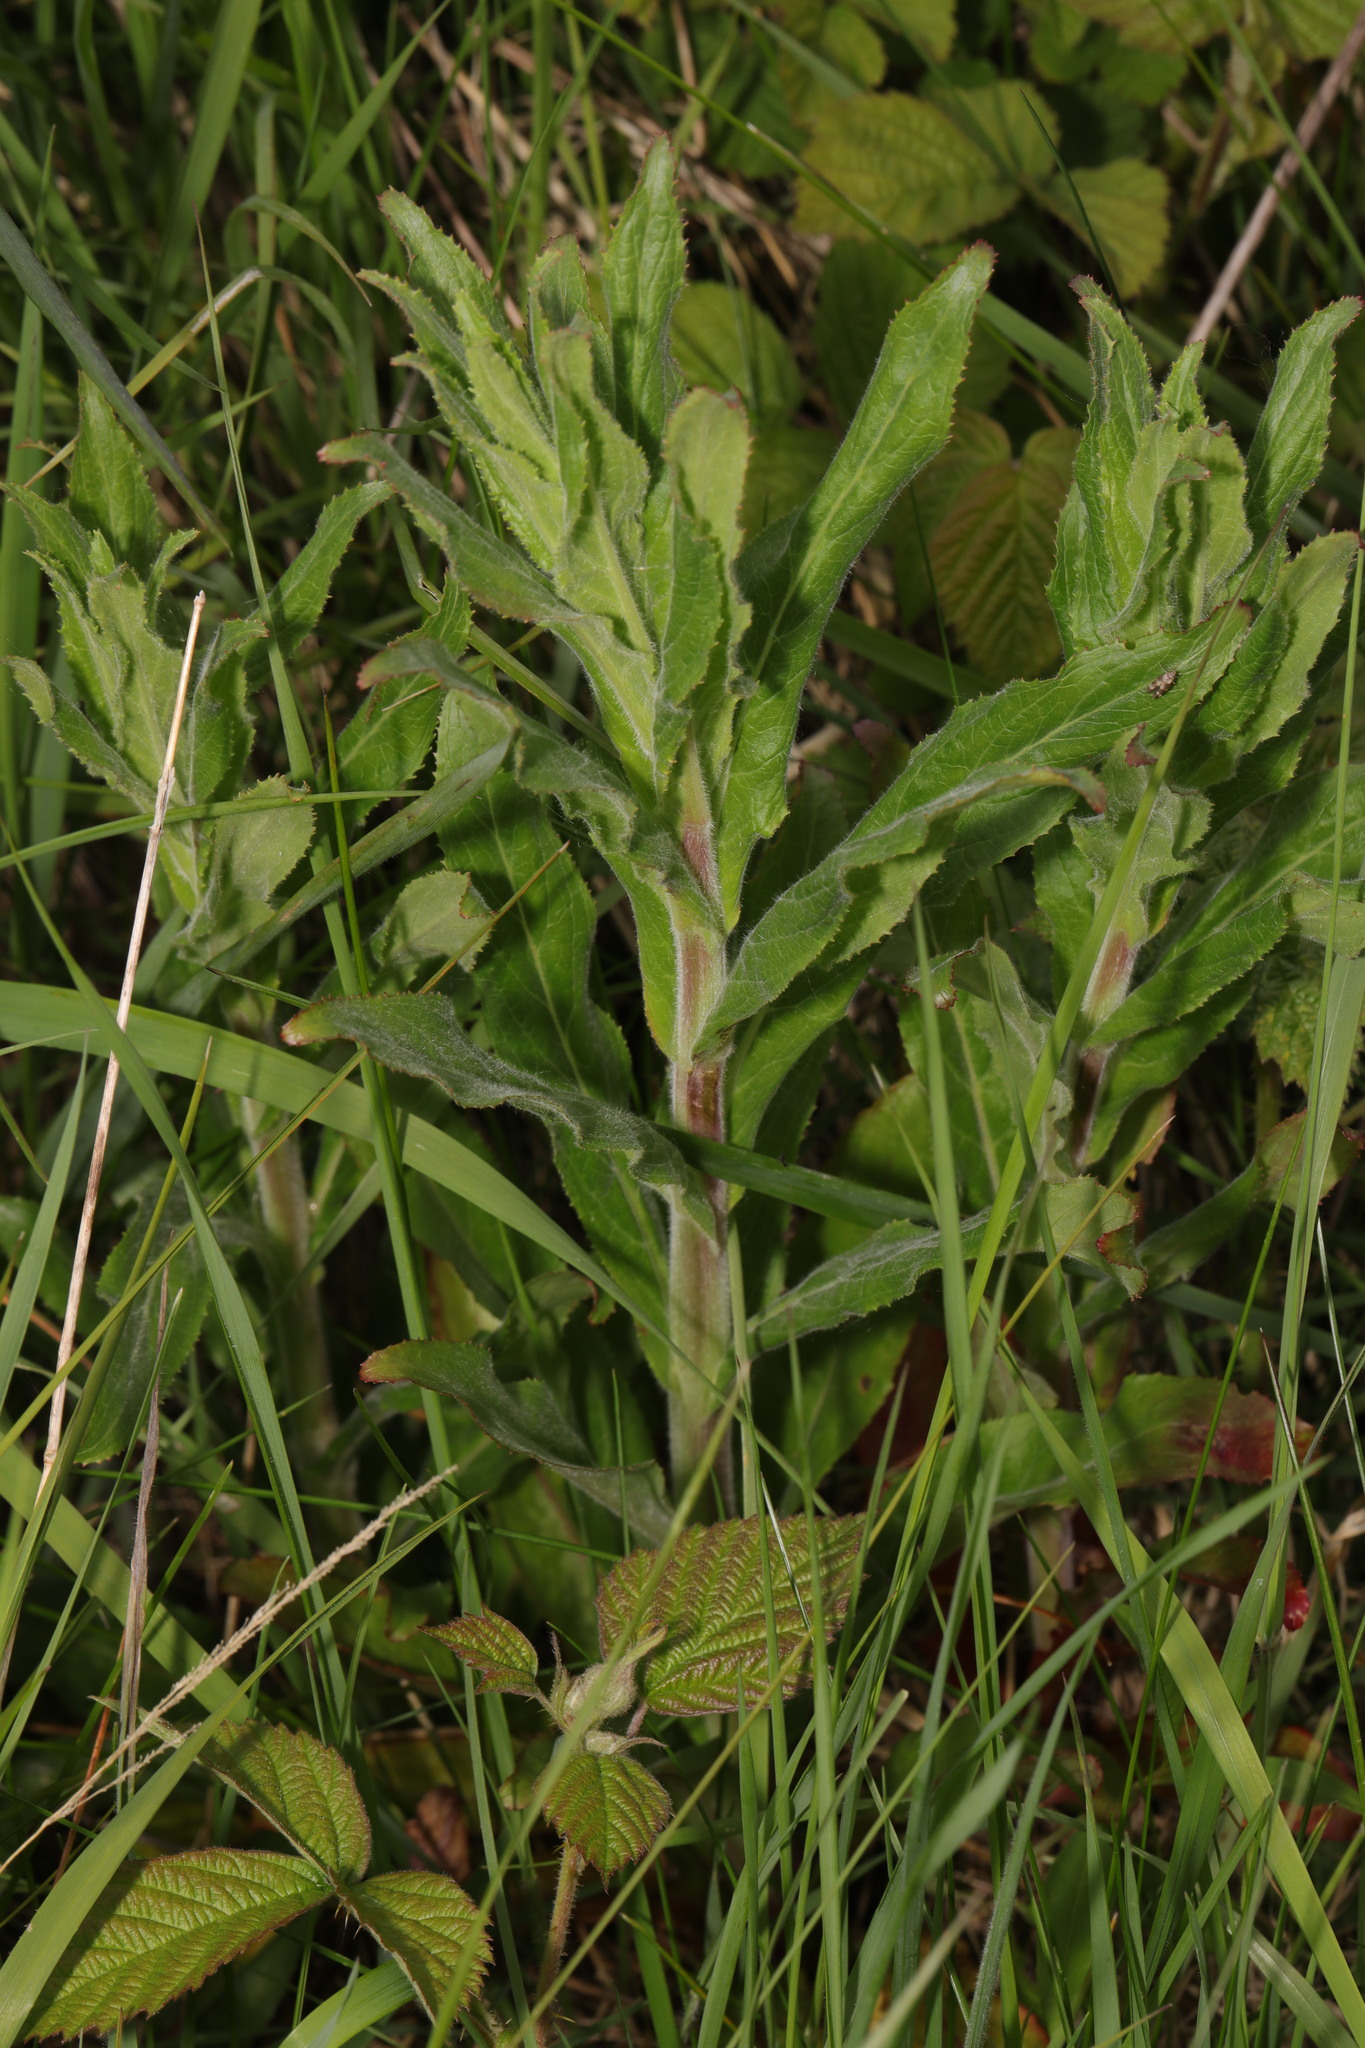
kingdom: Plantae
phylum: Tracheophyta
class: Magnoliopsida
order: Myrtales
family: Onagraceae
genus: Epilobium
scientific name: Epilobium hirsutum
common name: Great willowherb
